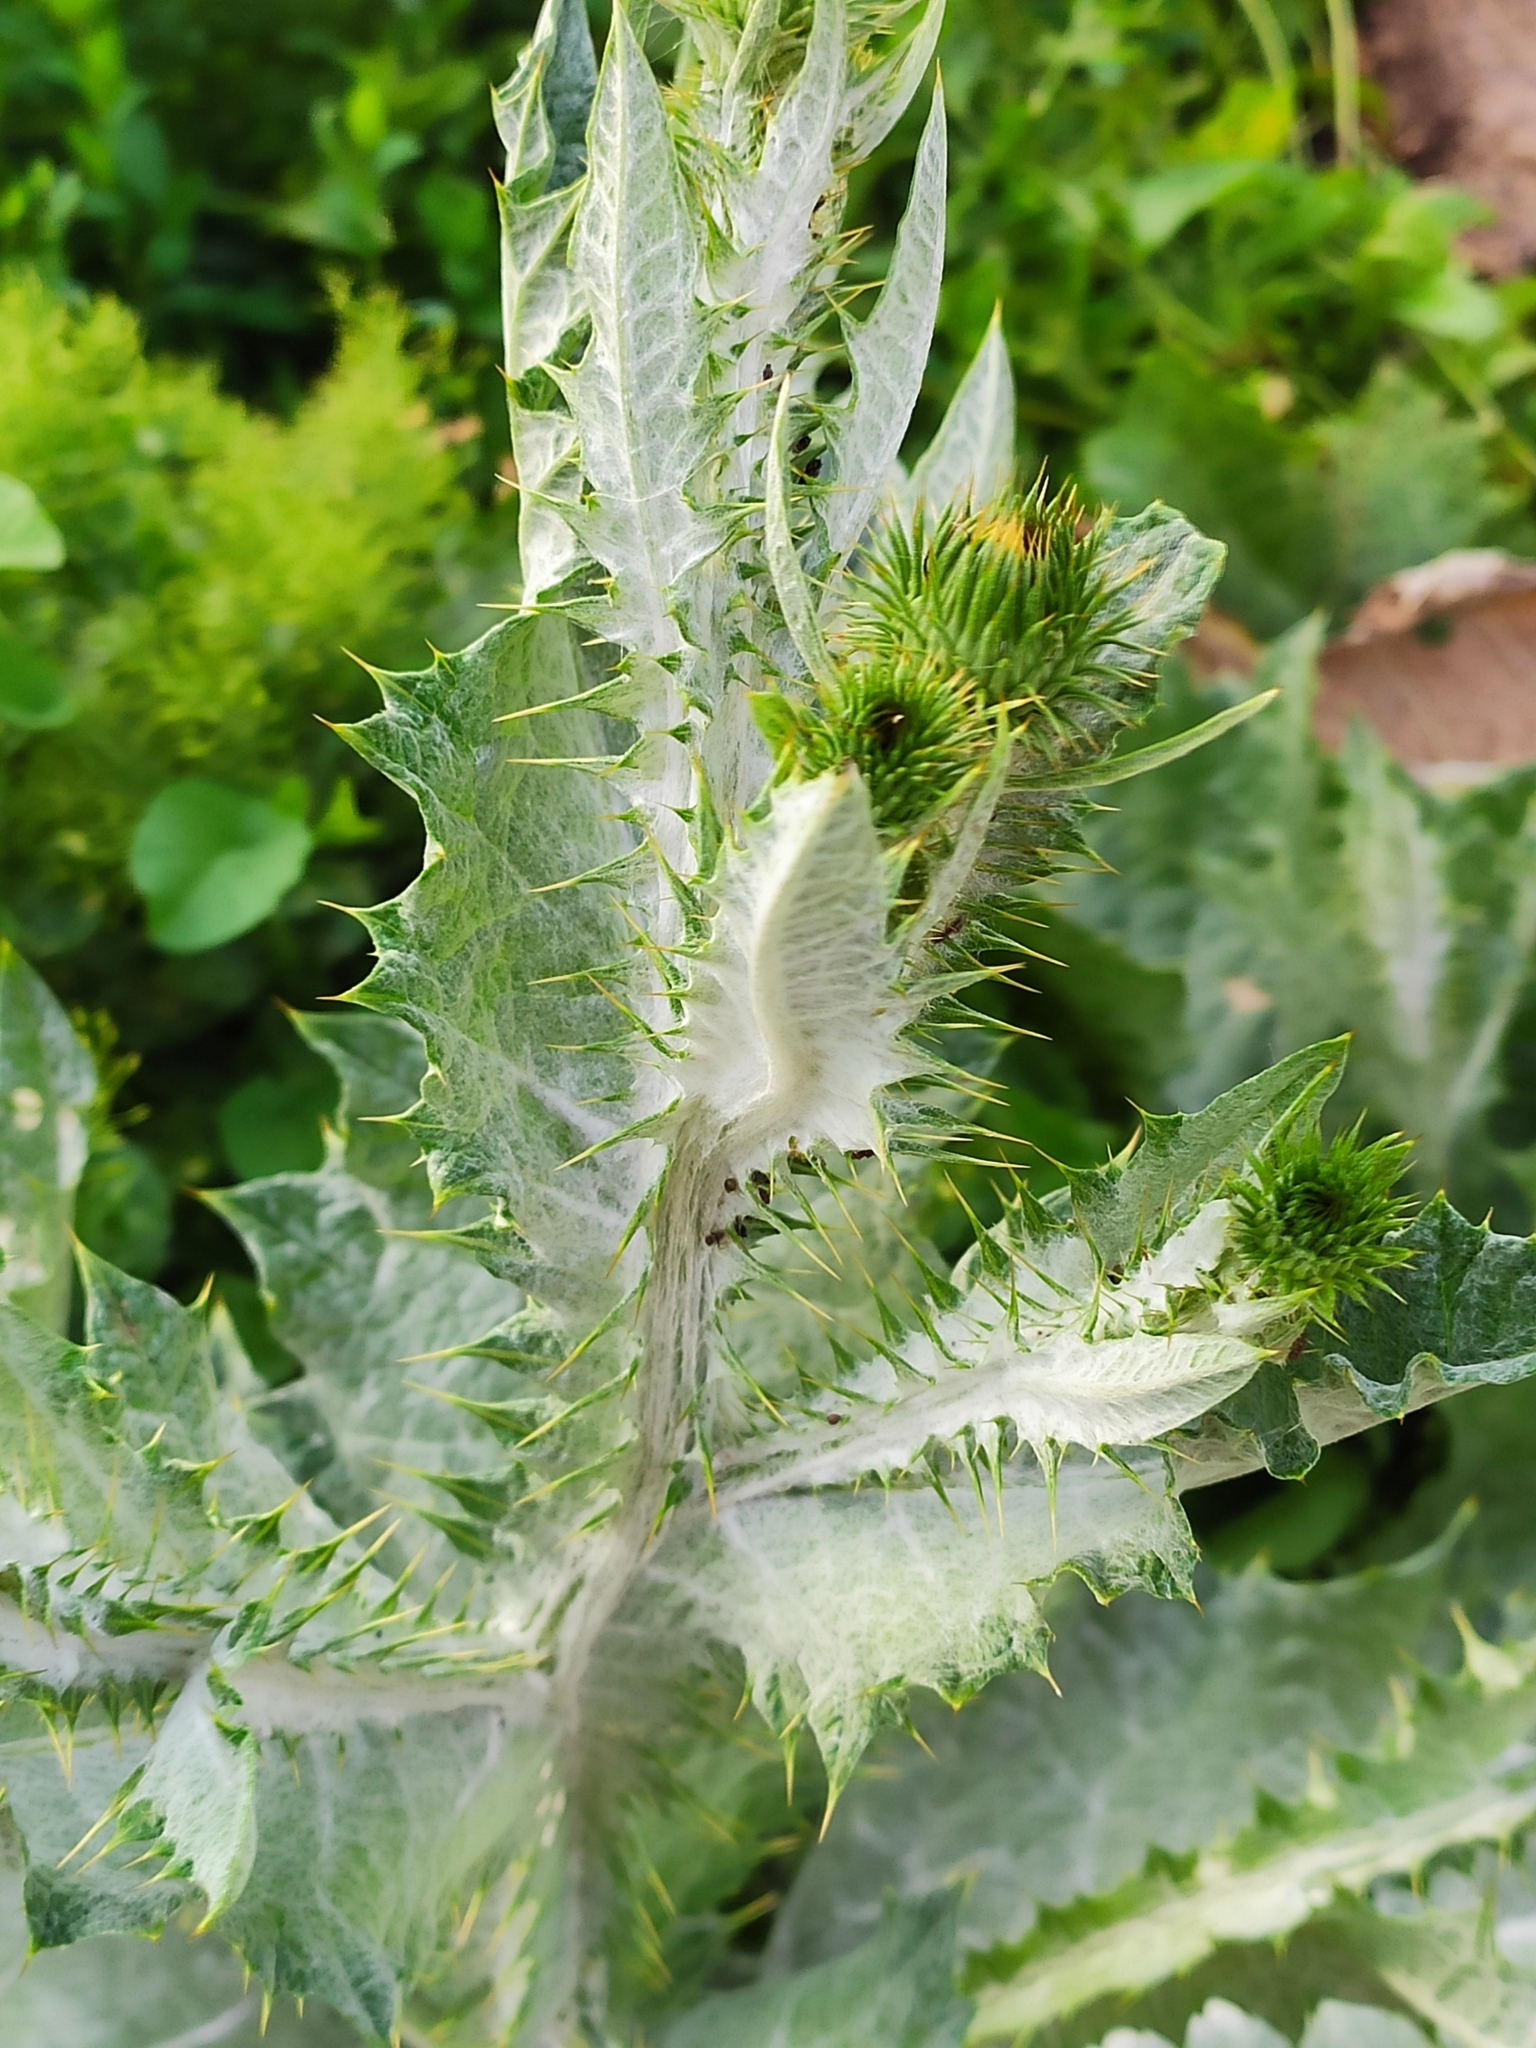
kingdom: Plantae
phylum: Tracheophyta
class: Magnoliopsida
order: Asterales
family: Asteraceae
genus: Onopordum
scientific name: Onopordum acanthium
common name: Scotch thistle
